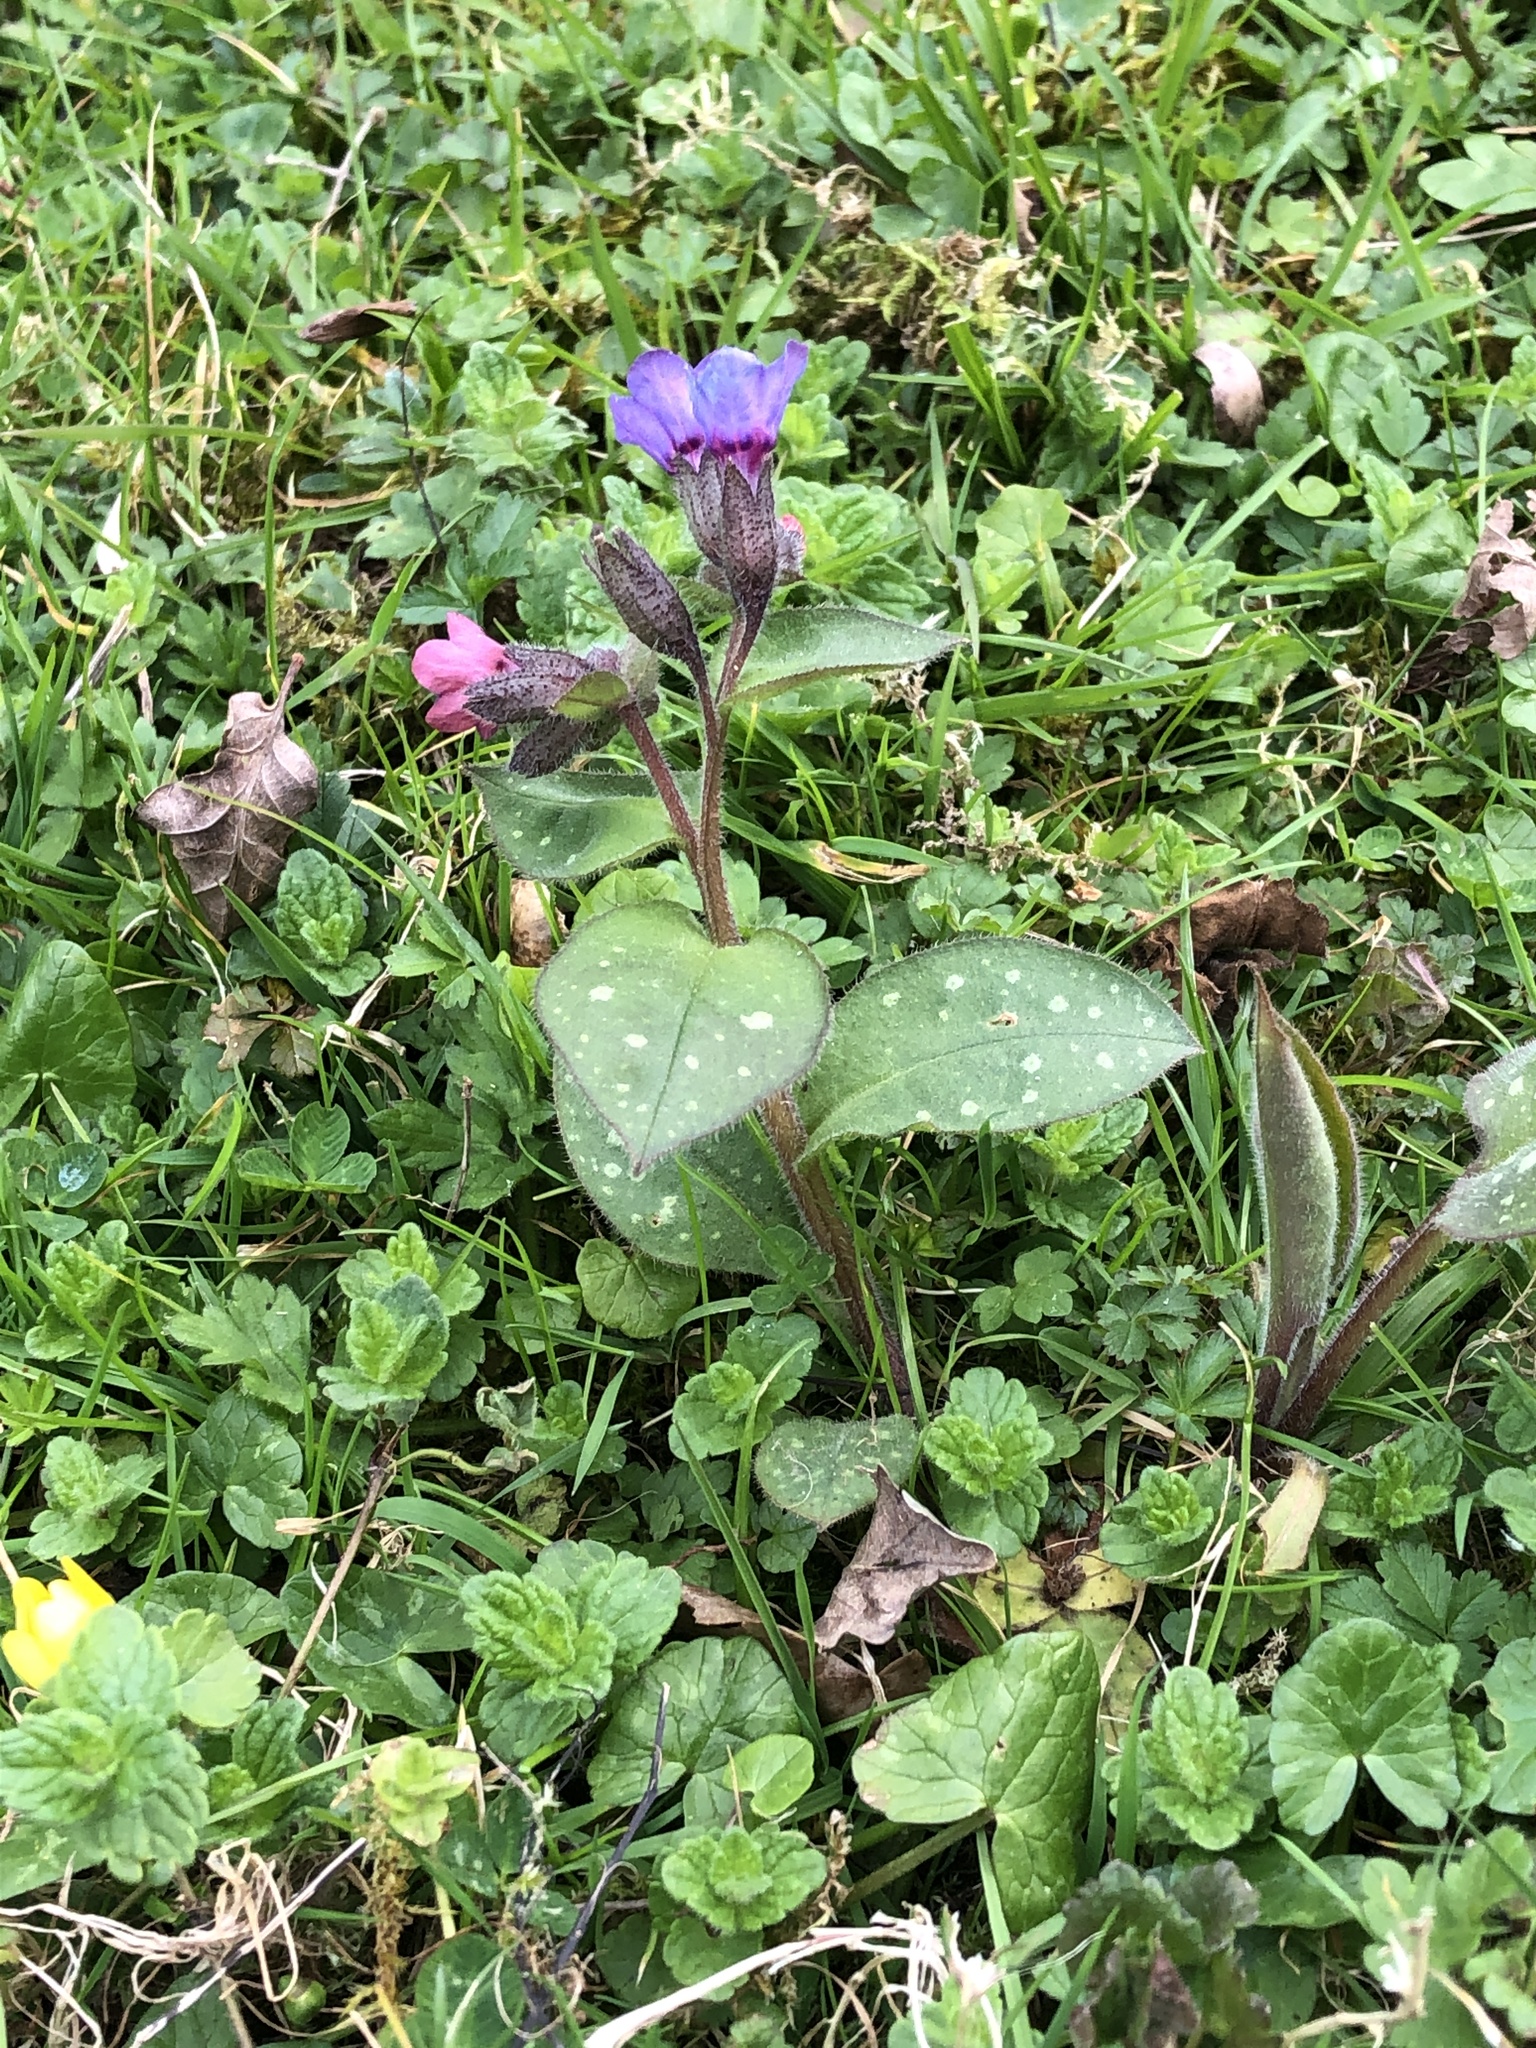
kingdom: Plantae
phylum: Tracheophyta
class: Magnoliopsida
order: Boraginales
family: Boraginaceae
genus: Pulmonaria
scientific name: Pulmonaria officinalis
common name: Lungwort
